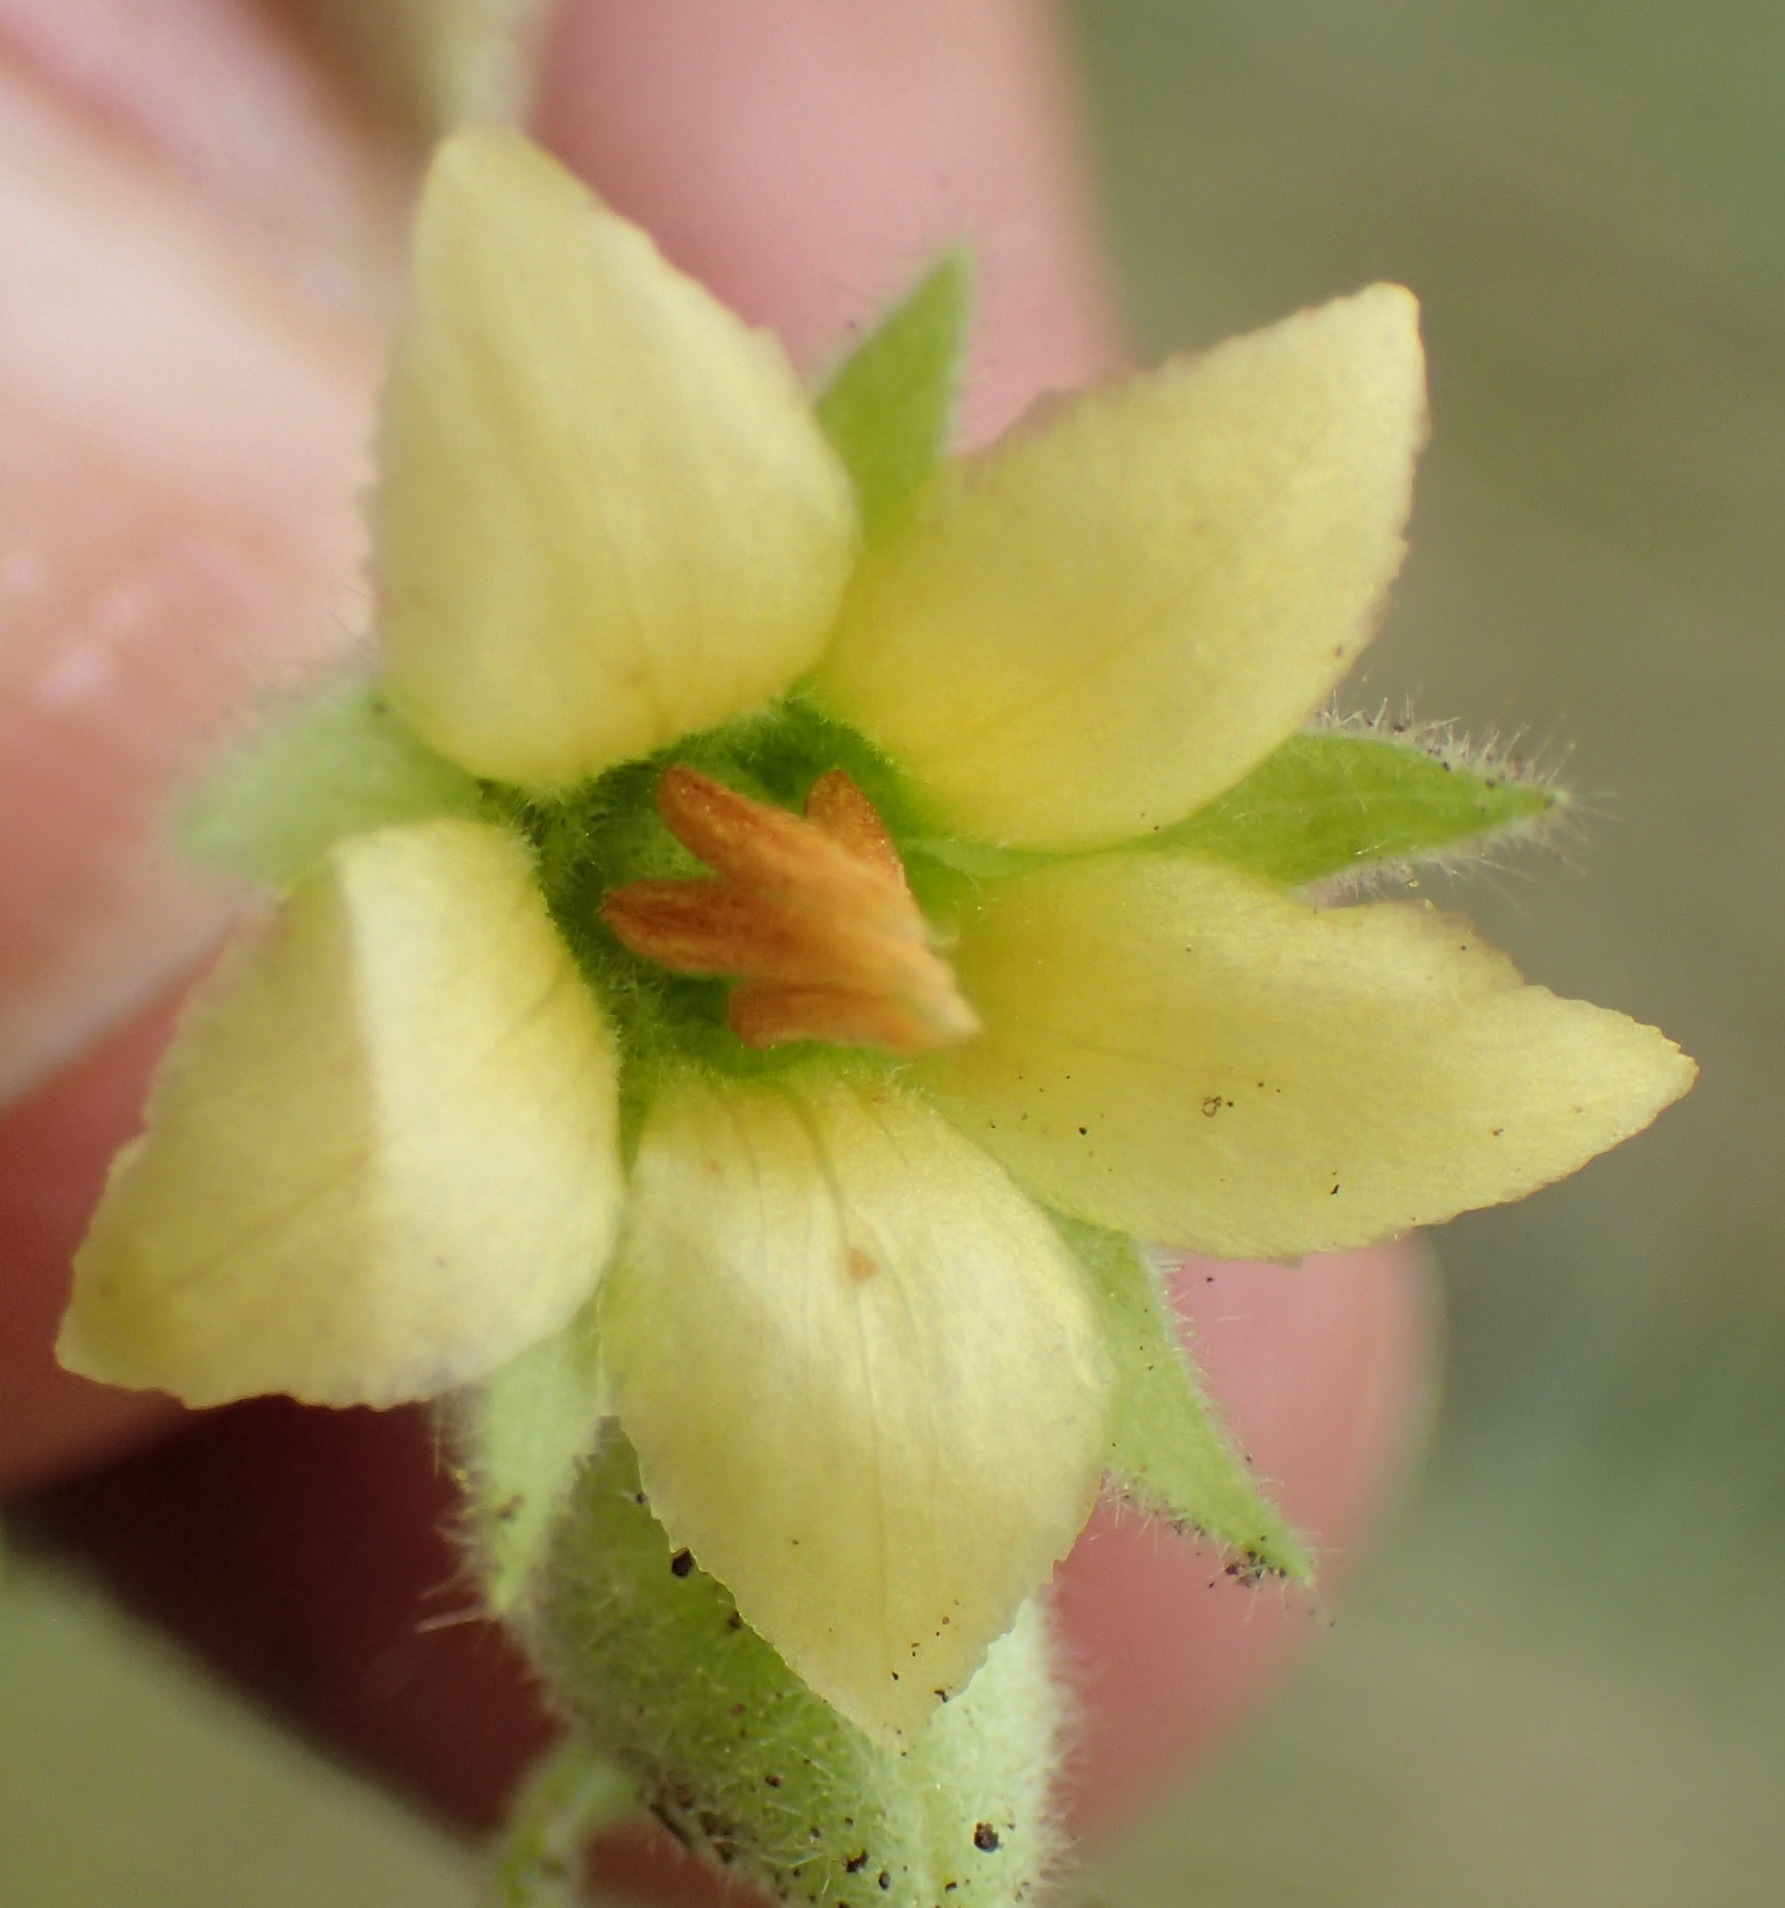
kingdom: Plantae
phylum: Tracheophyta
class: Magnoliopsida
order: Malvales
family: Malvaceae
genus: Hermannia
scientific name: Hermannia burkei
